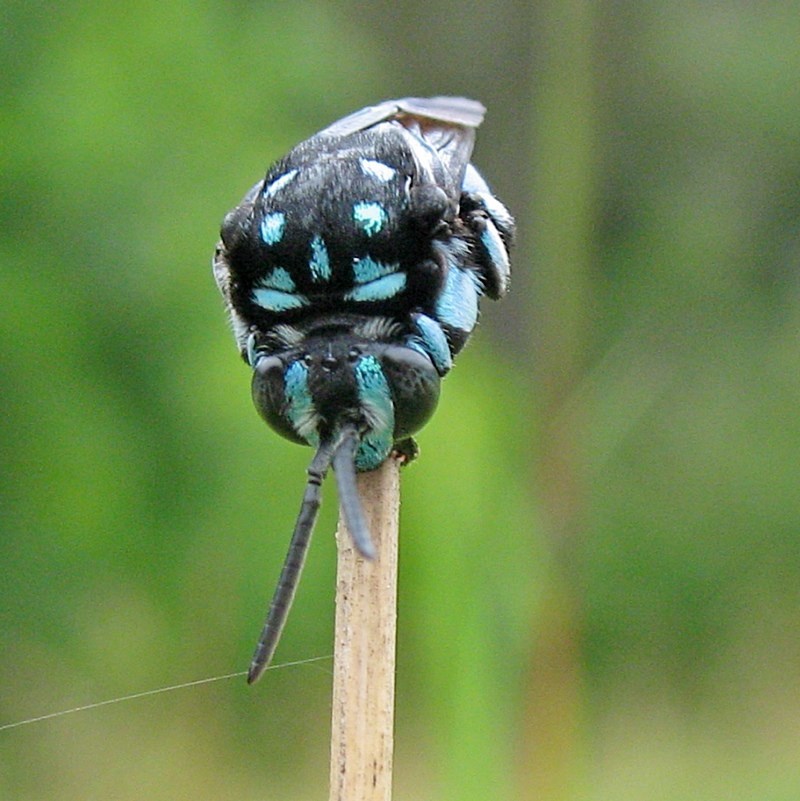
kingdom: Animalia
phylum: Arthropoda
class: Insecta
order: Hymenoptera
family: Apidae
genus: Thyreus
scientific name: Thyreus nitidulus
